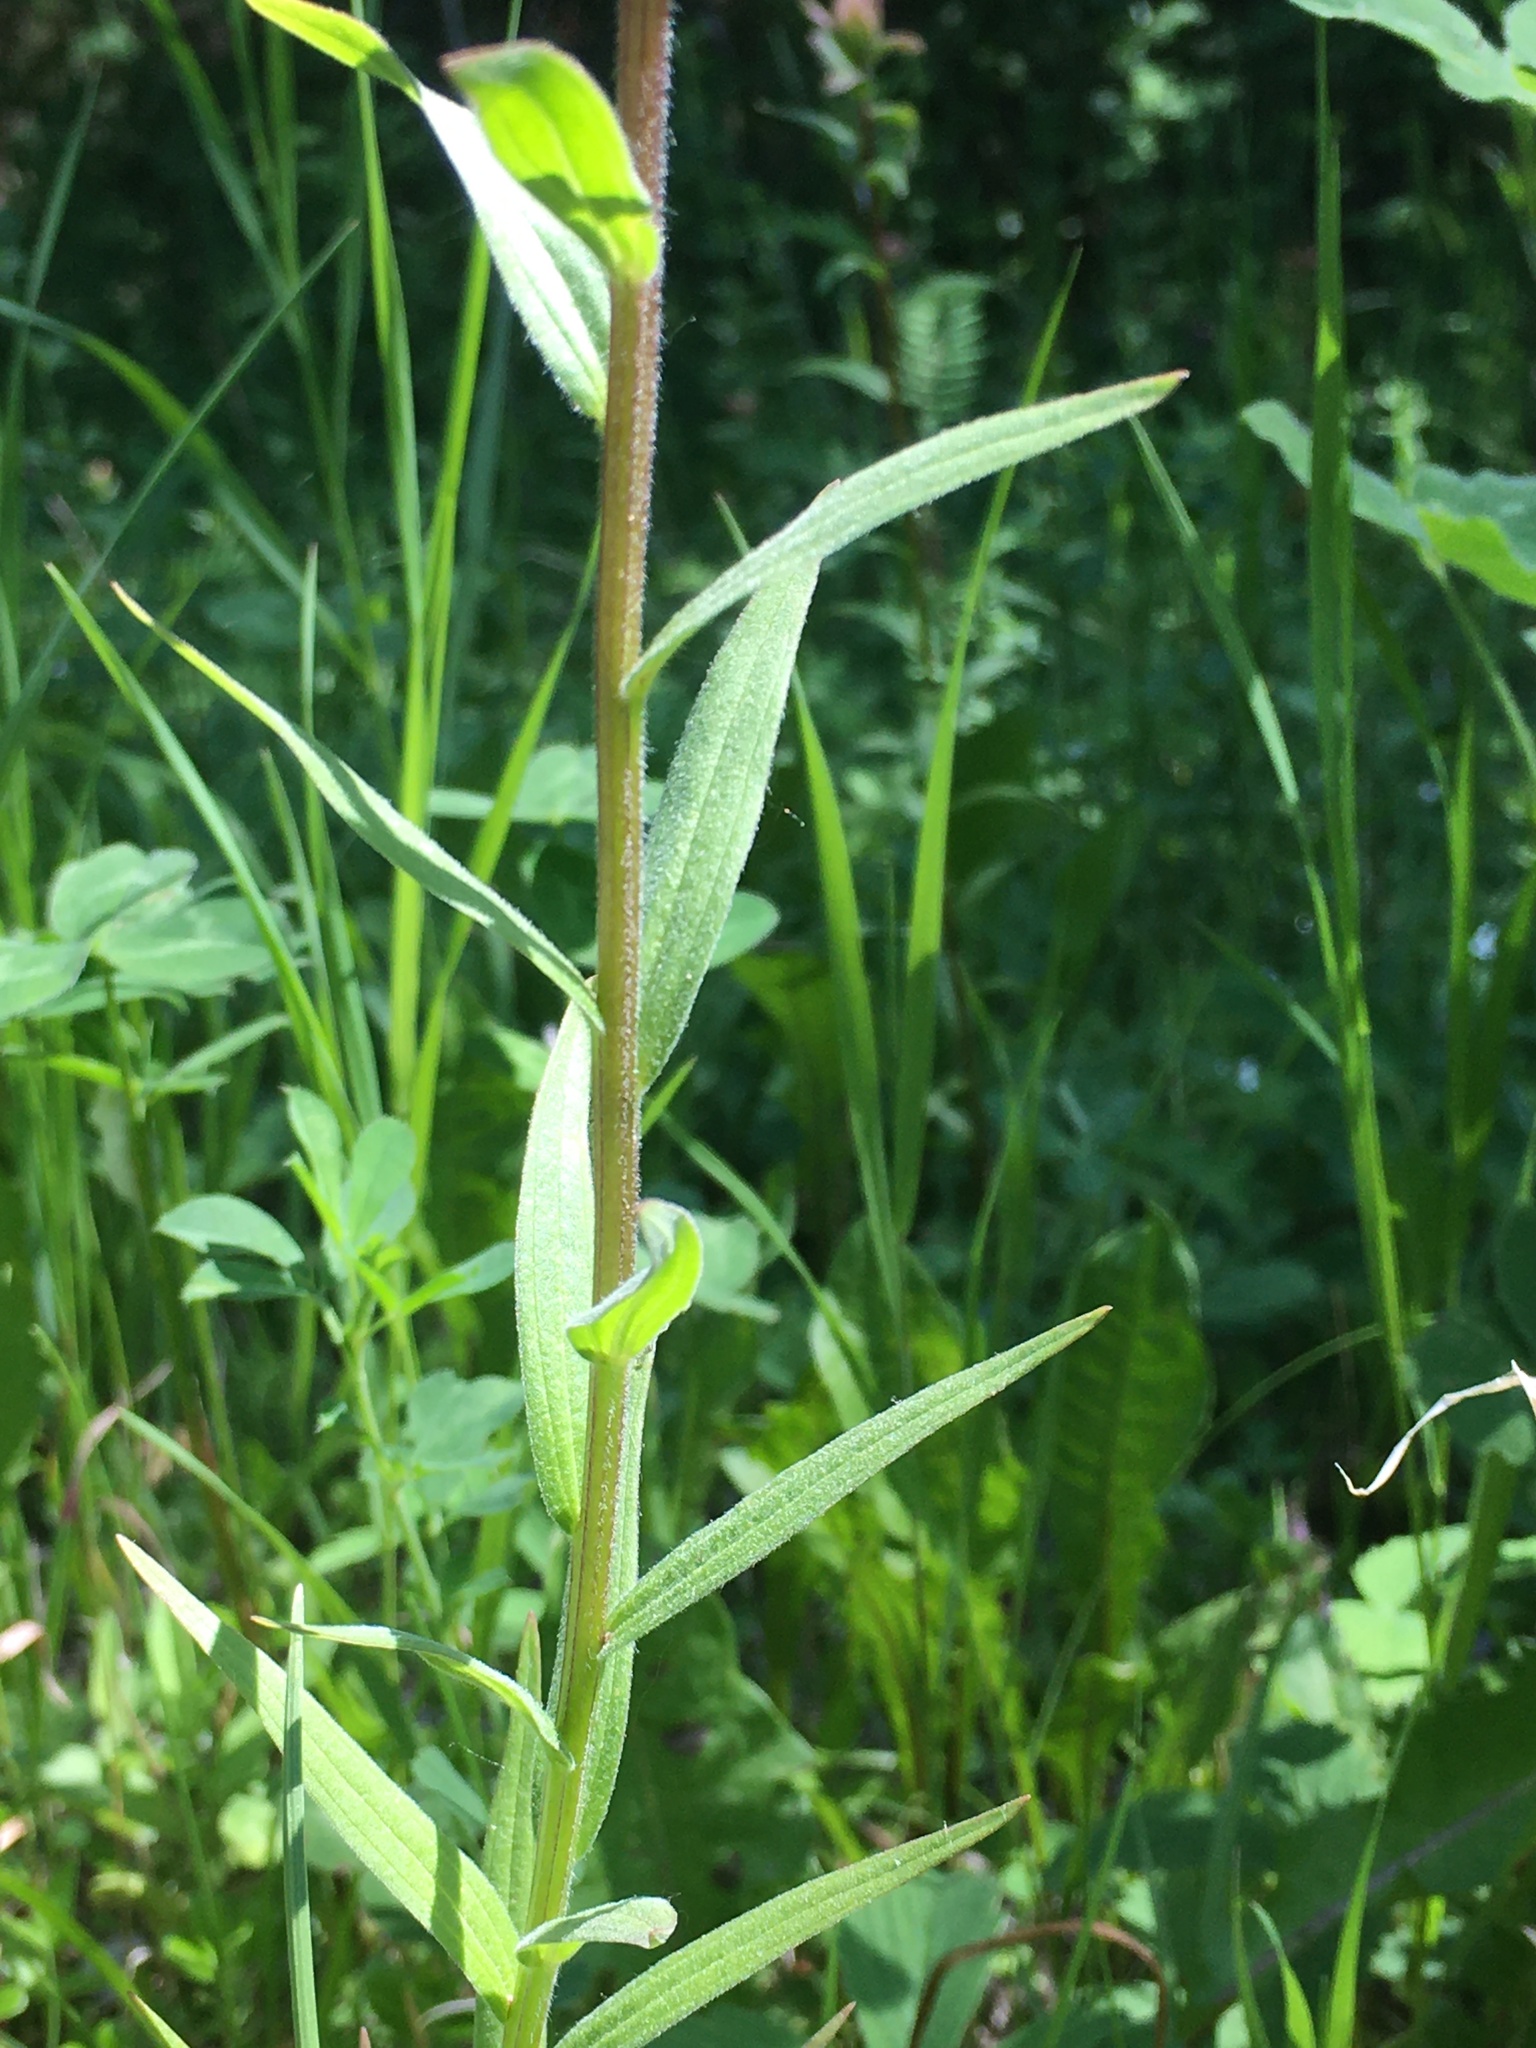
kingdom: Plantae
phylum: Tracheophyta
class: Magnoliopsida
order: Lamiales
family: Orobanchaceae
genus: Castilleja
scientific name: Castilleja miniata
